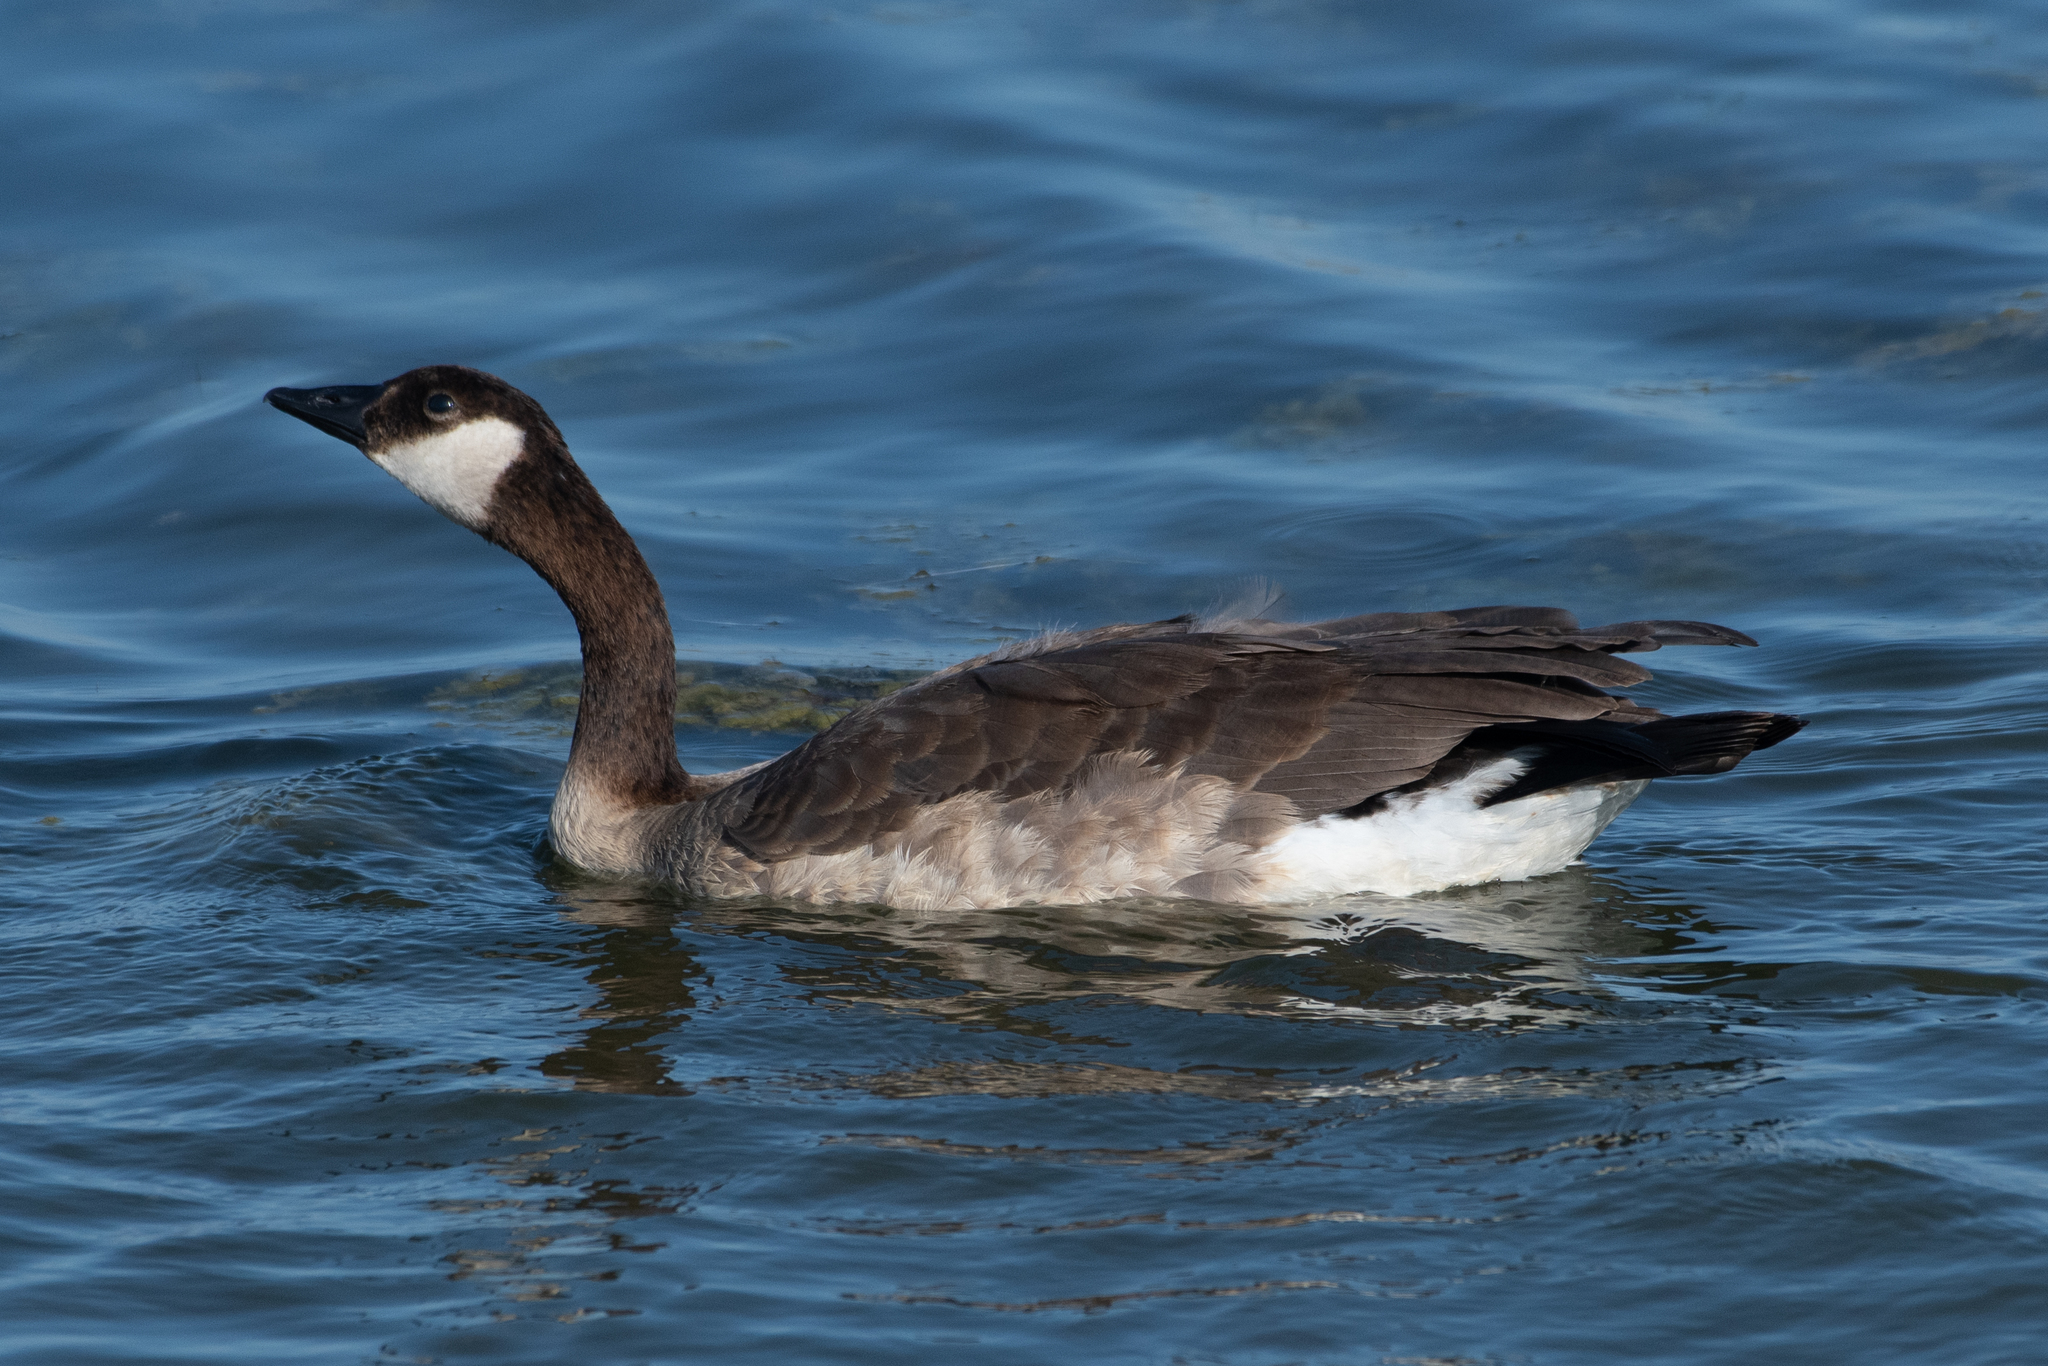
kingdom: Animalia
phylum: Chordata
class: Aves
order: Anseriformes
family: Anatidae
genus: Branta
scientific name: Branta canadensis
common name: Canada goose
